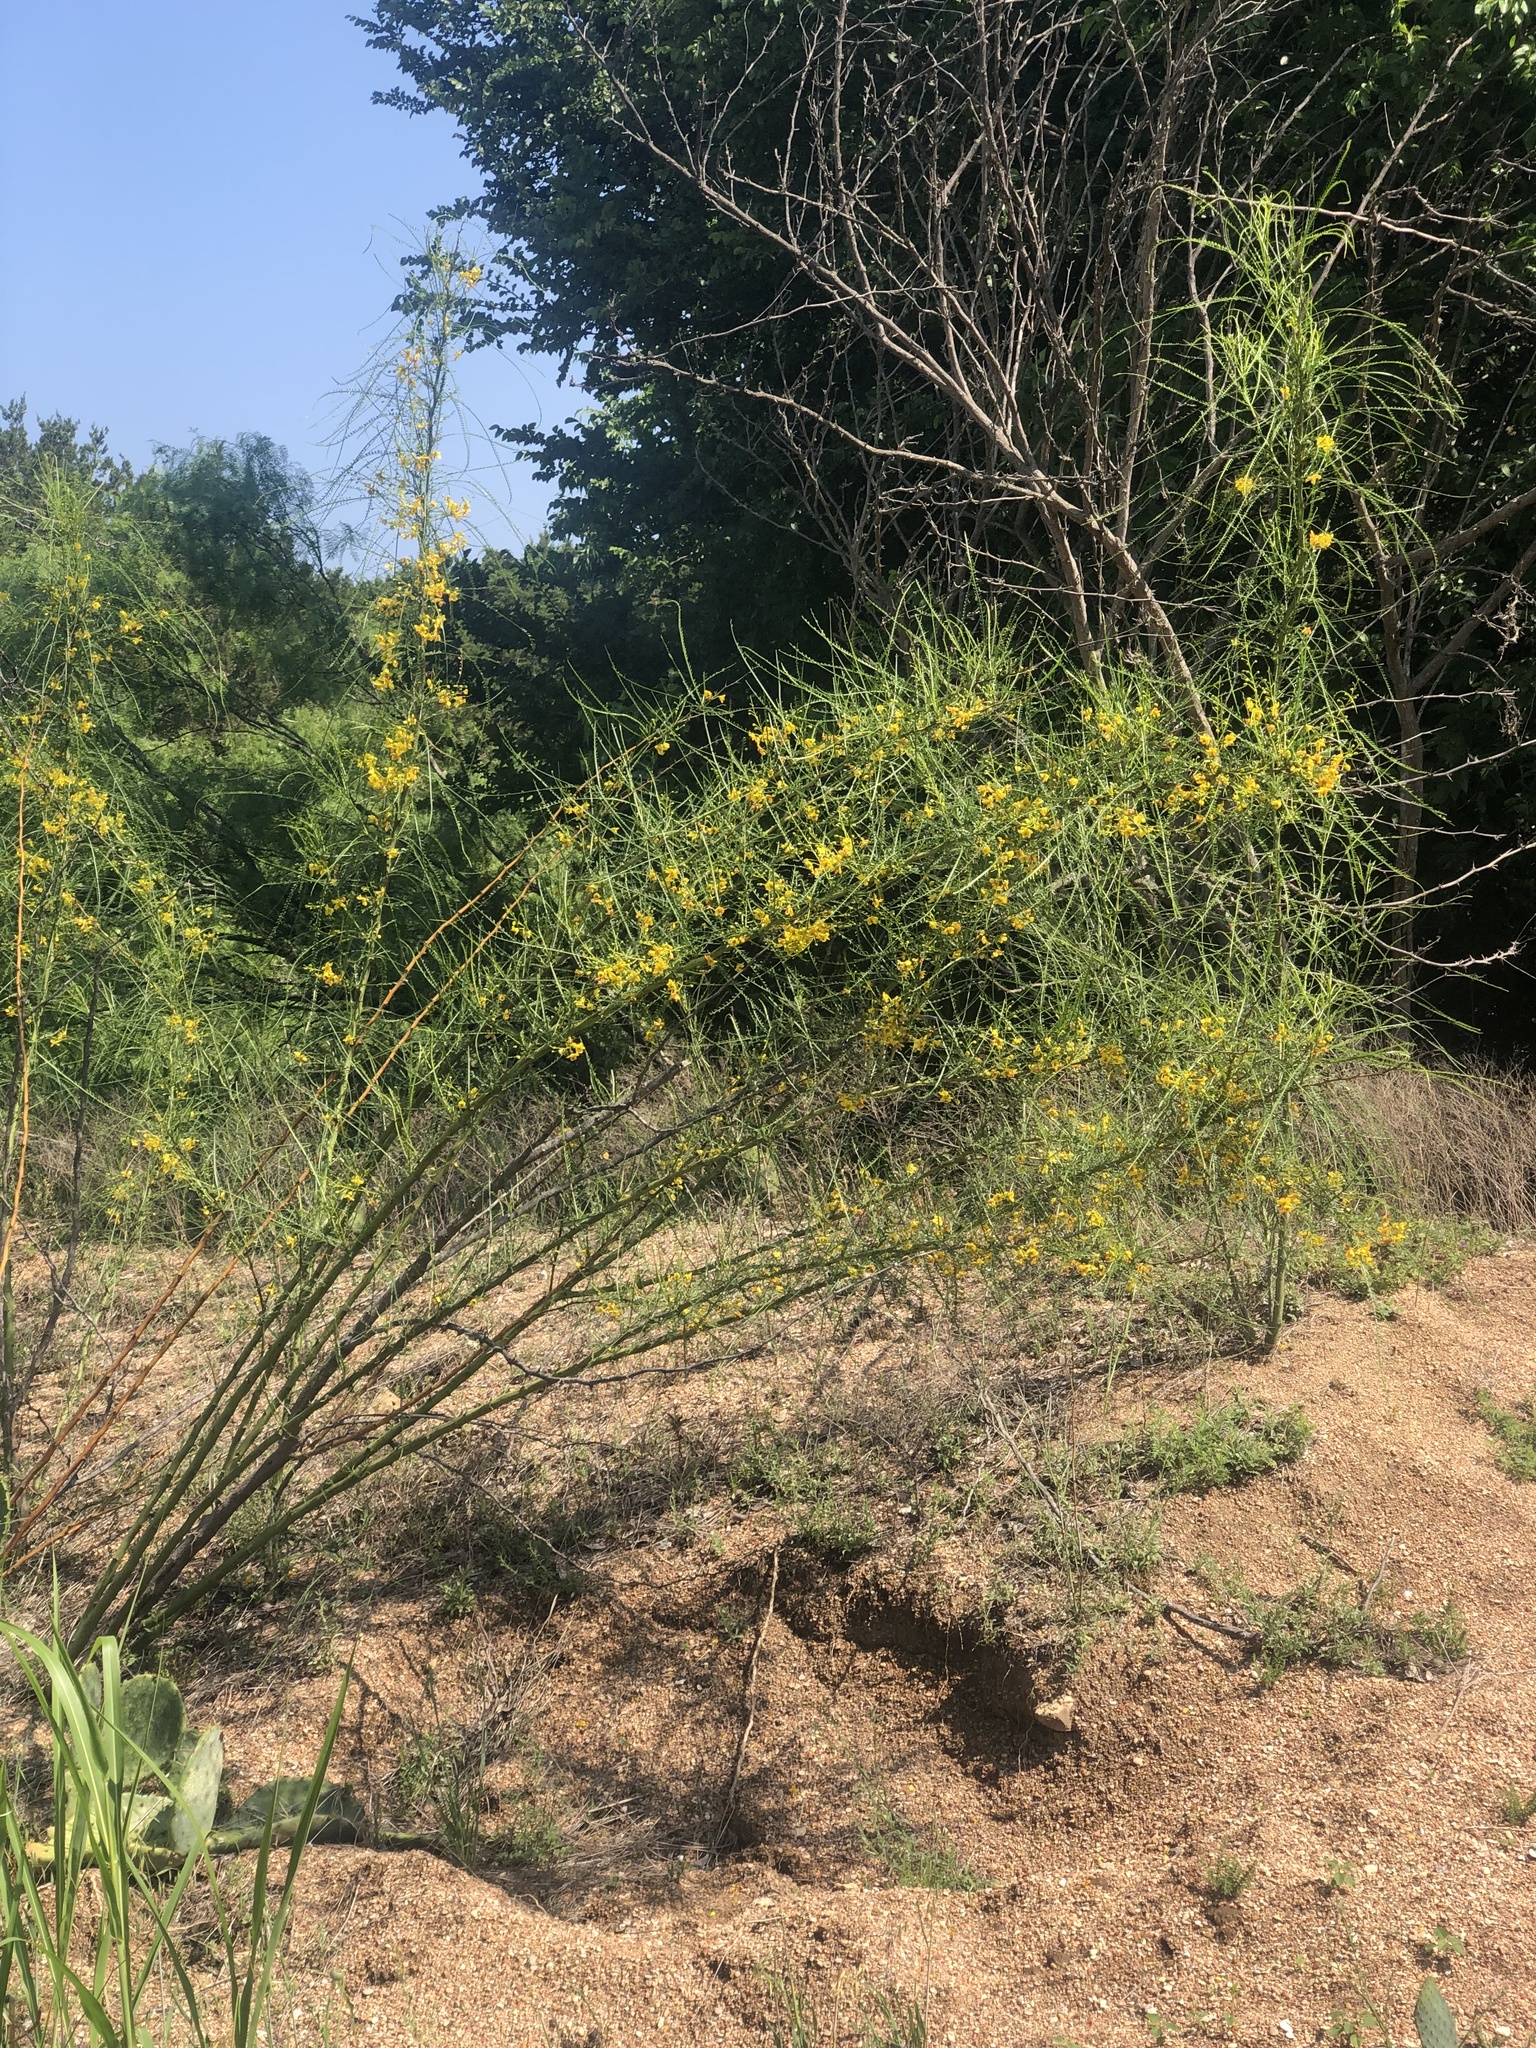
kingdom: Plantae
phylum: Tracheophyta
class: Magnoliopsida
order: Fabales
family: Fabaceae
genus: Parkinsonia
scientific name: Parkinsonia aculeata
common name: Jerusalem thorn
